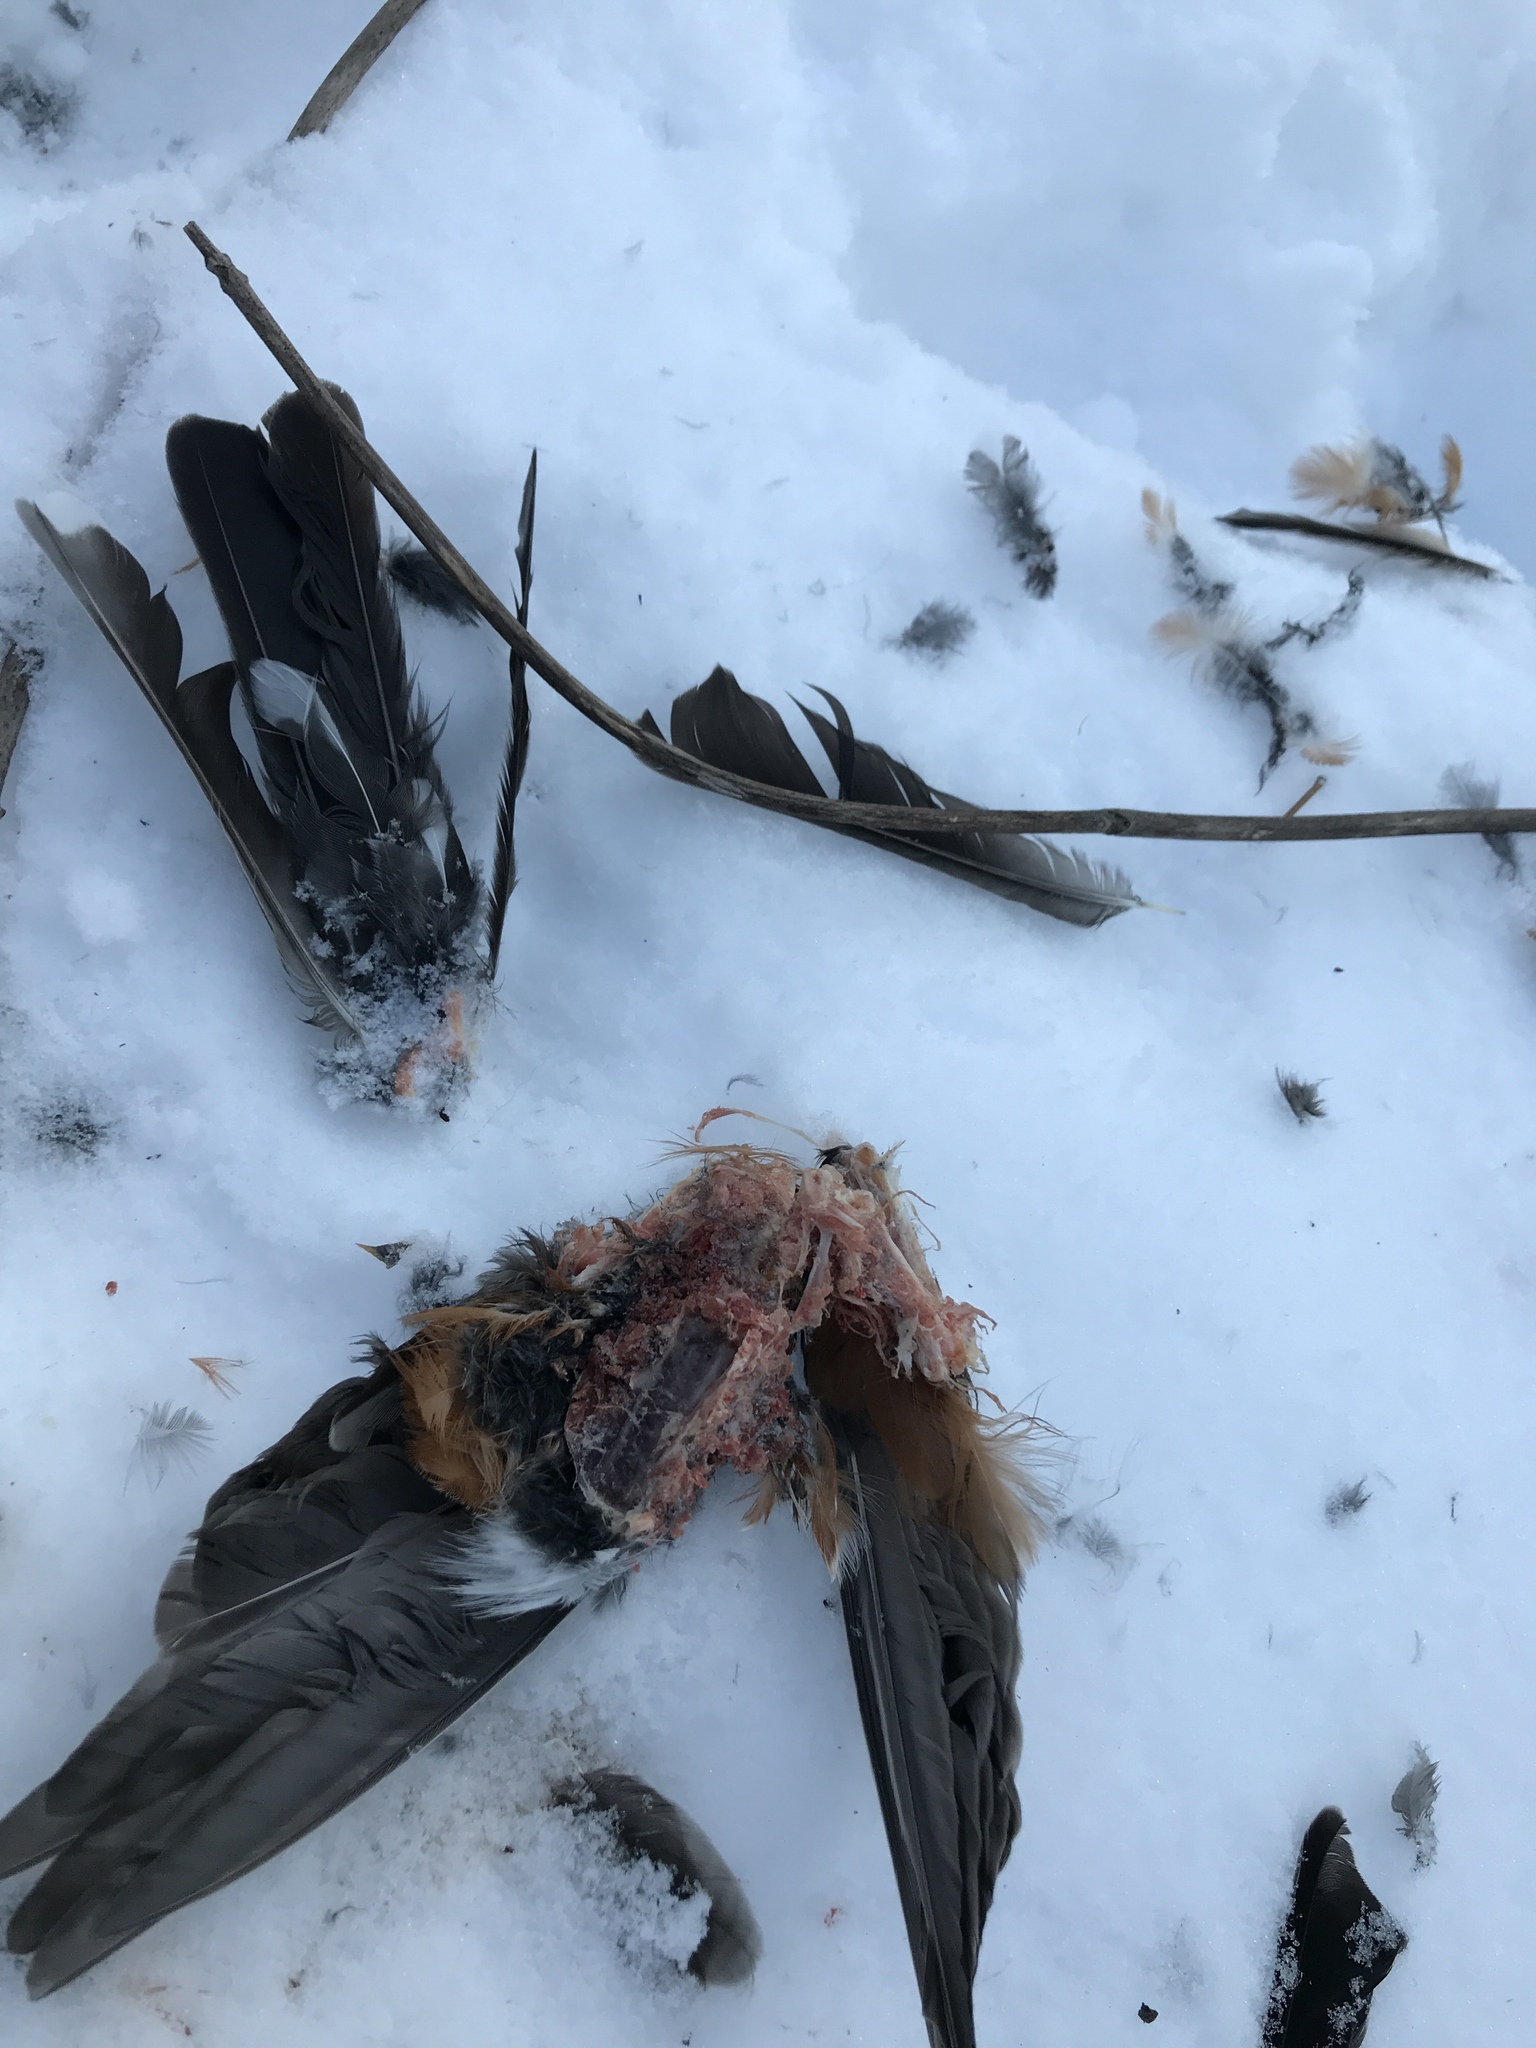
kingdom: Animalia
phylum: Chordata
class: Aves
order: Passeriformes
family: Turdidae
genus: Turdus
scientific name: Turdus migratorius
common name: American robin
